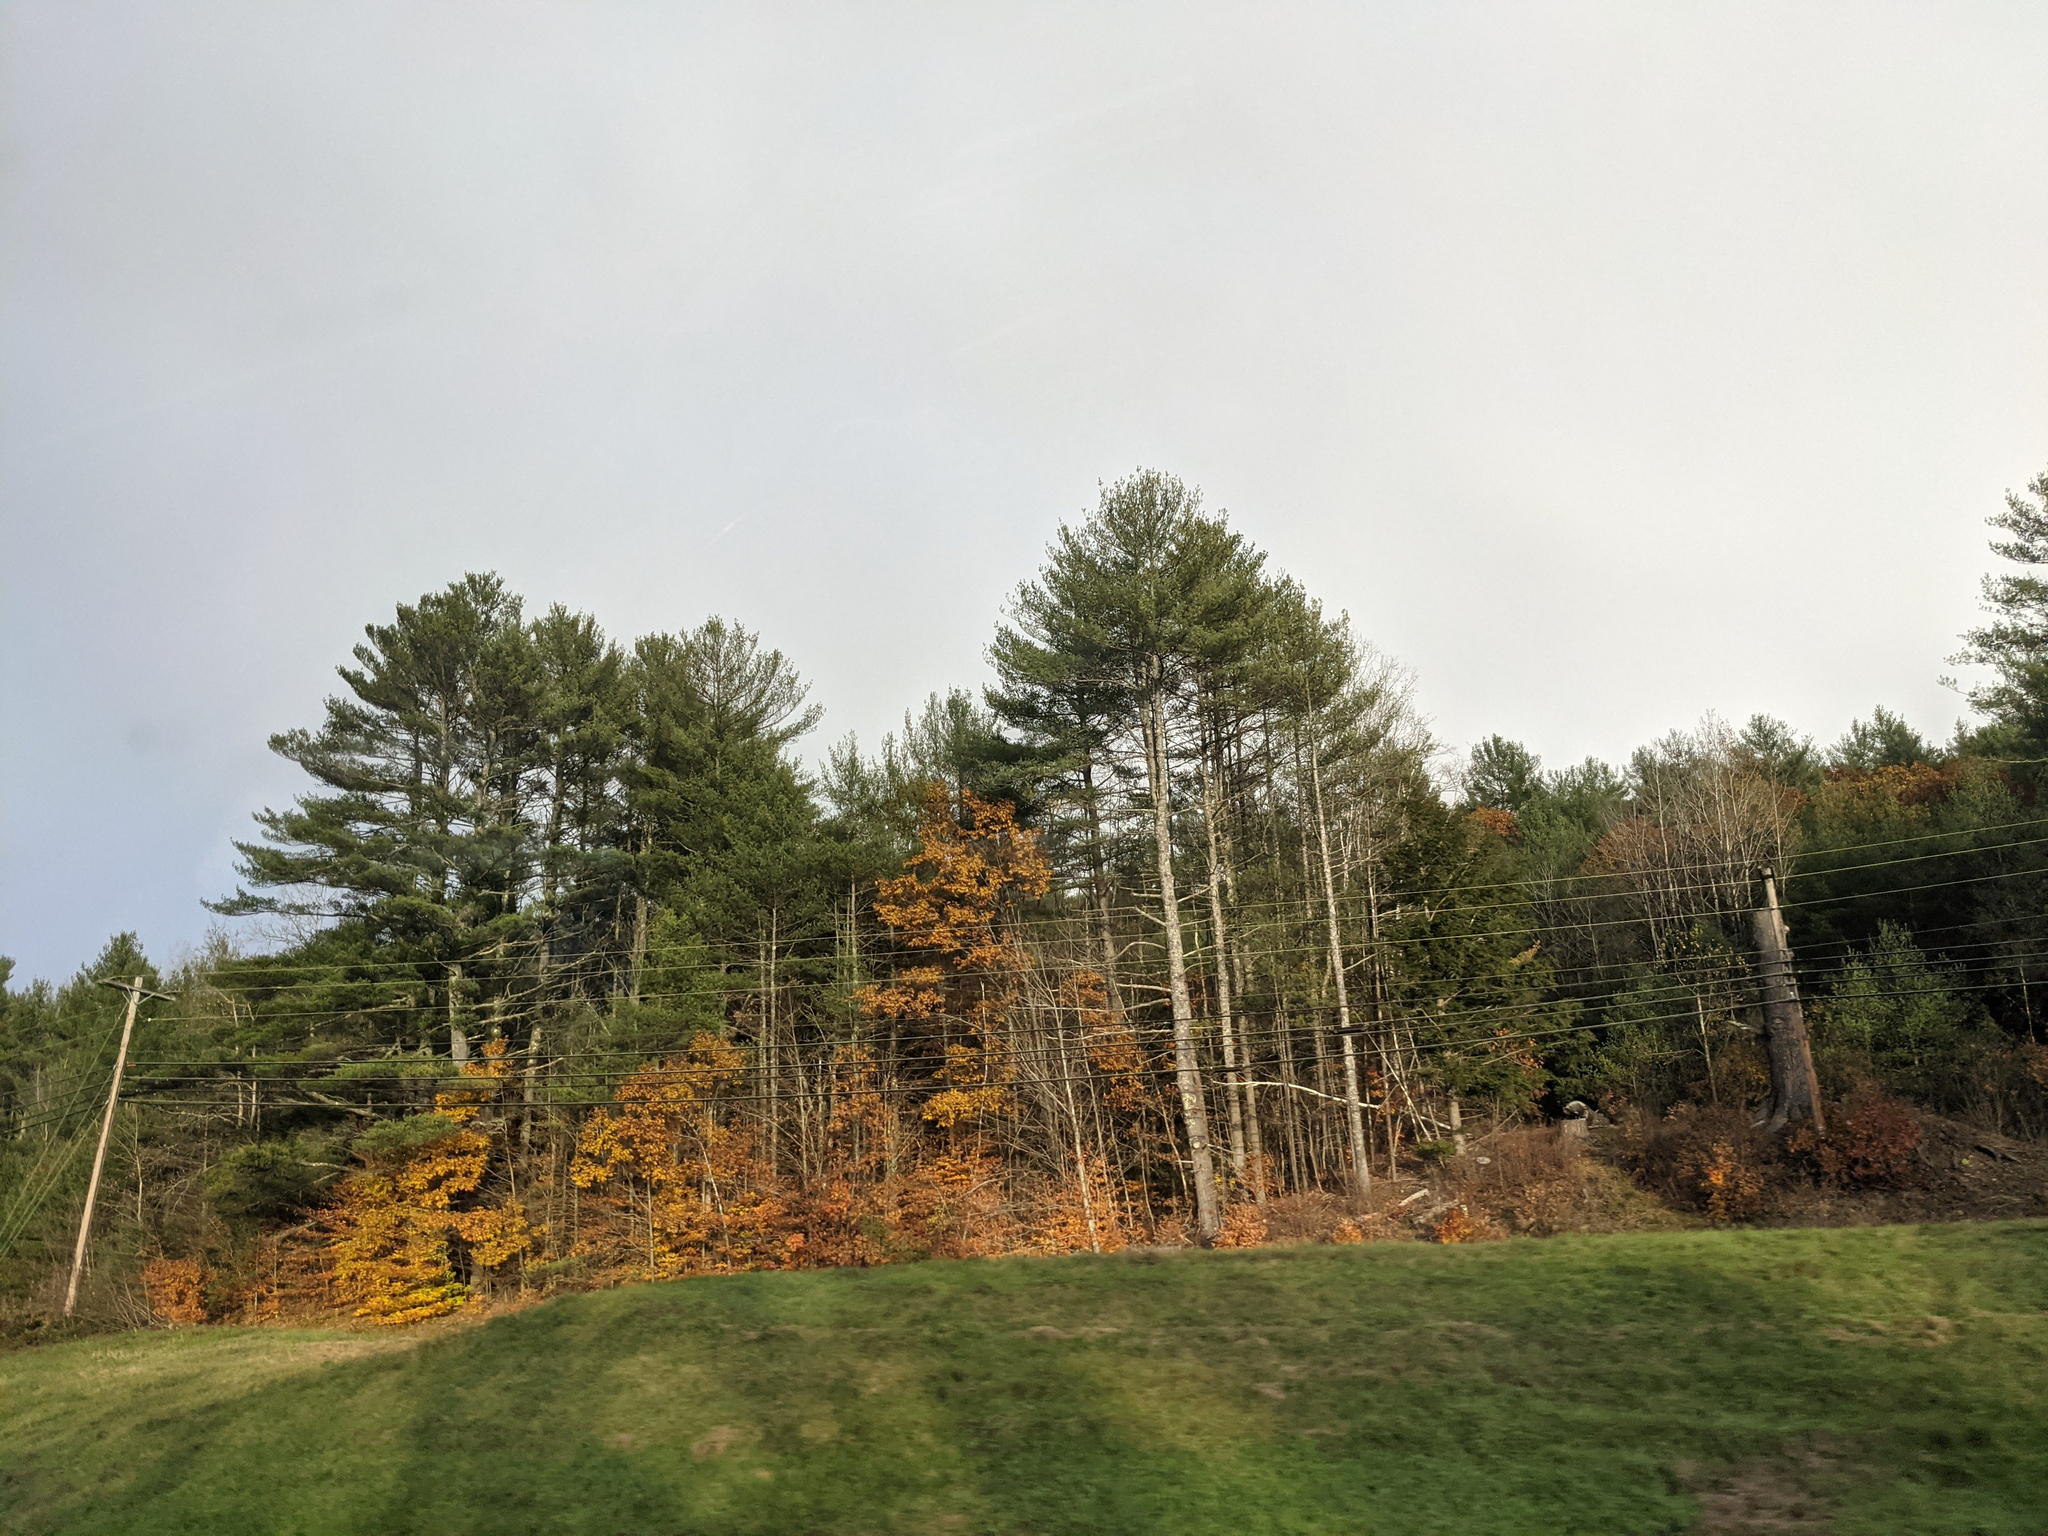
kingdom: Plantae
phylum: Tracheophyta
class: Pinopsida
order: Pinales
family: Pinaceae
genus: Pinus
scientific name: Pinus strobus
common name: Weymouth pine
